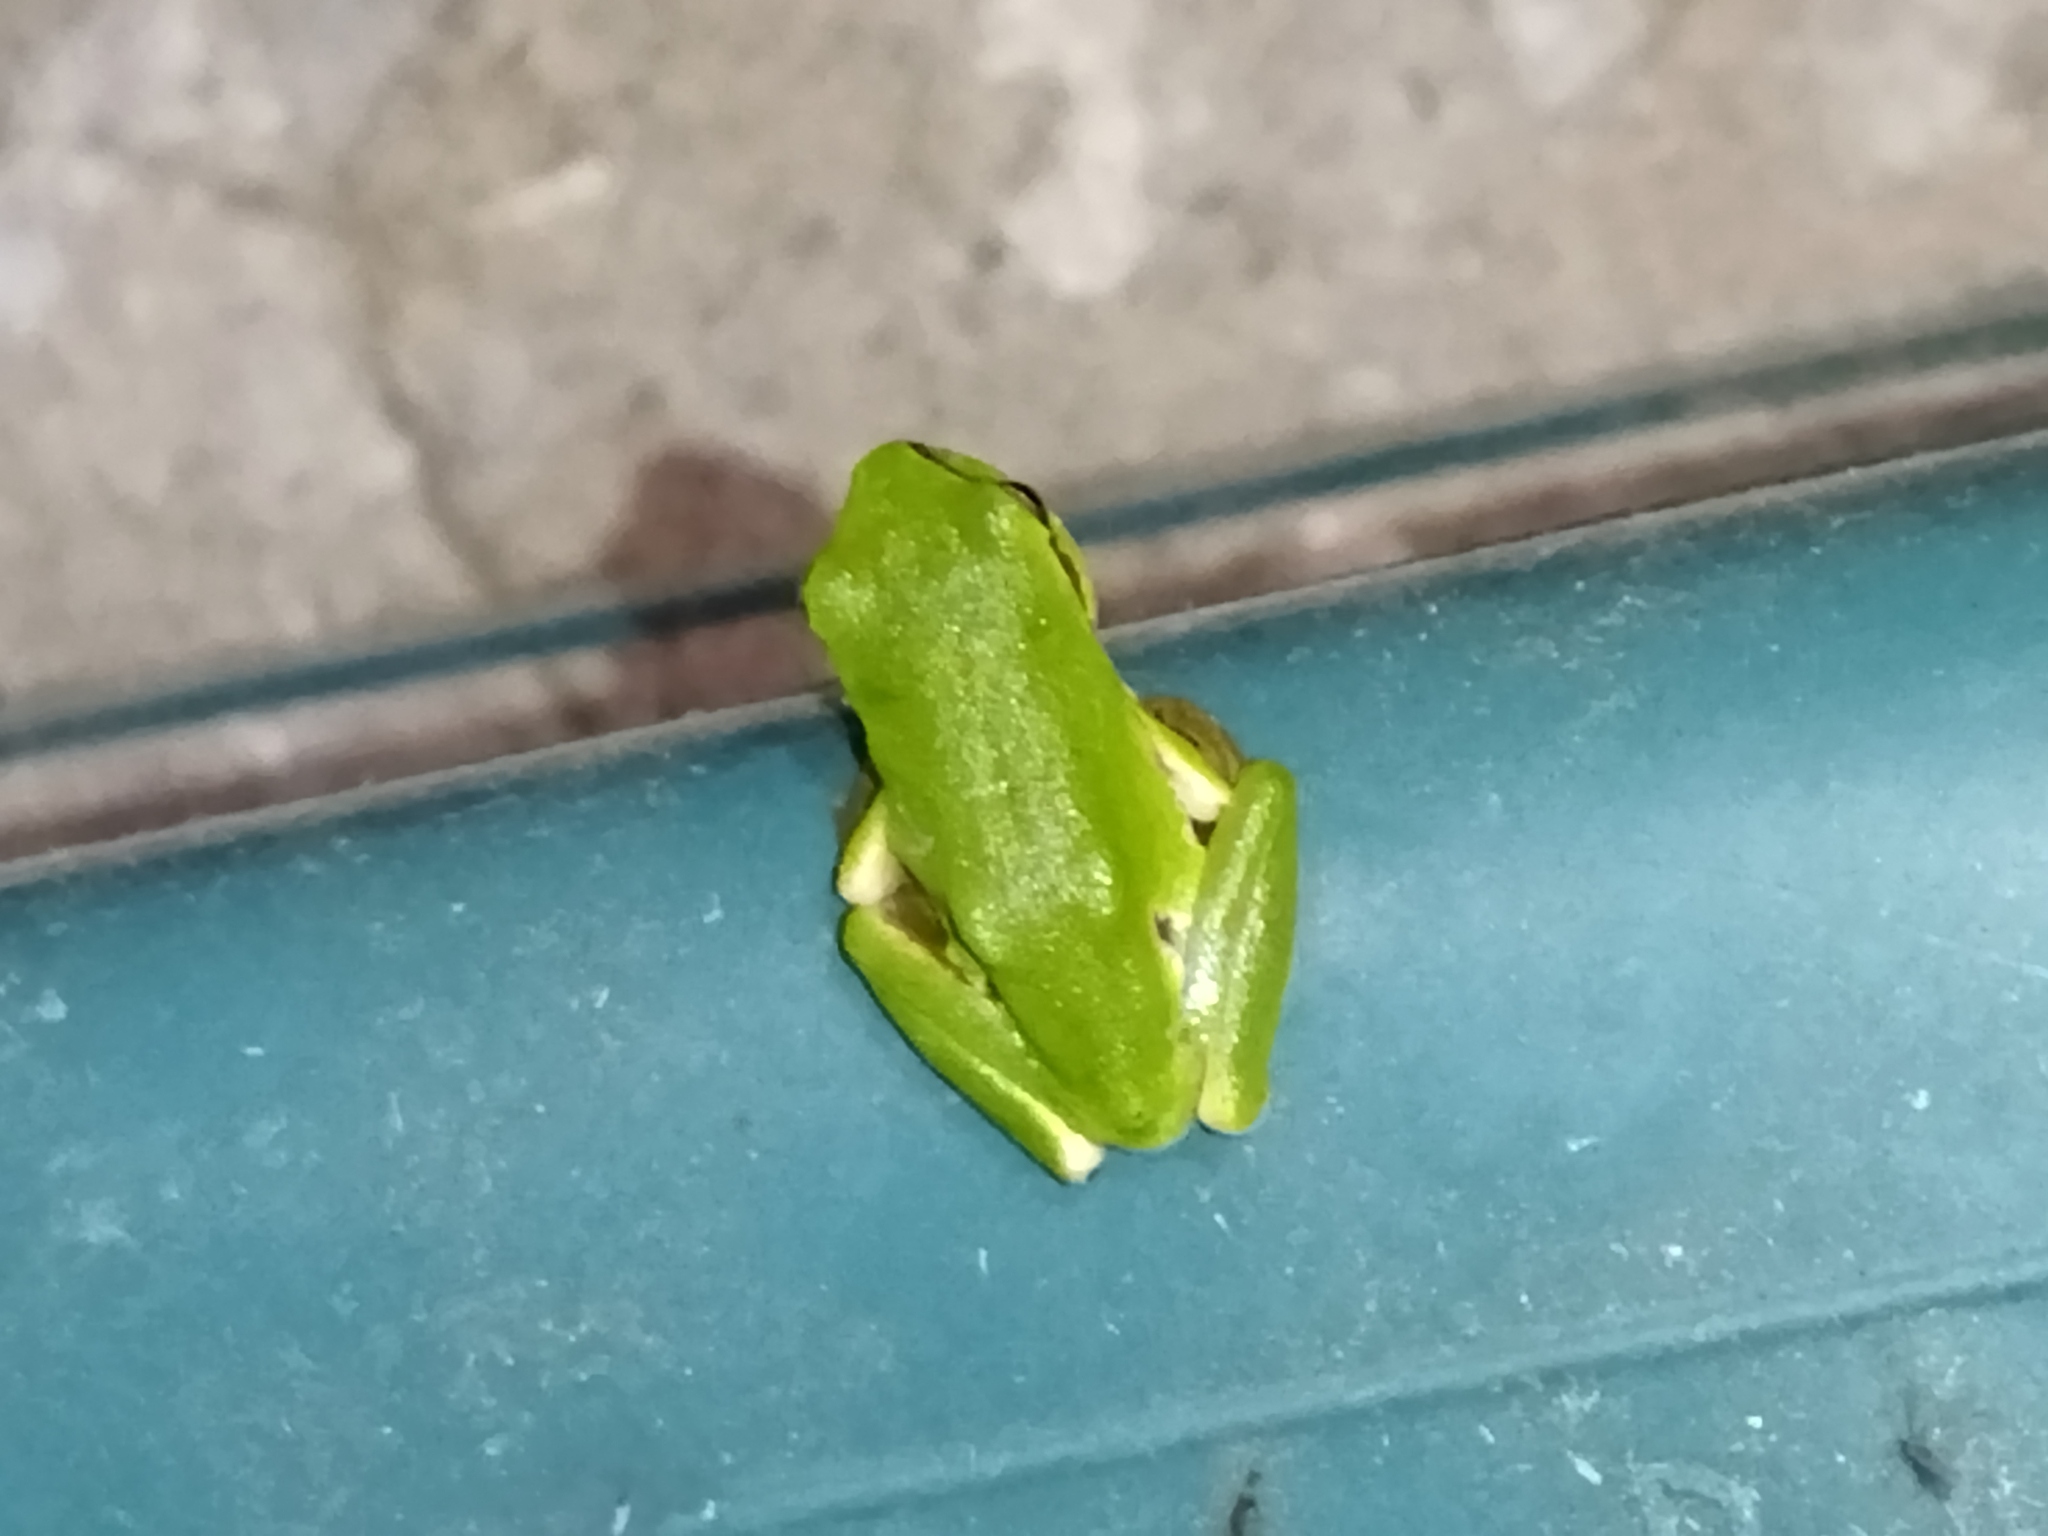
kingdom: Animalia
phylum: Chordata
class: Amphibia
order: Anura
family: Hylidae
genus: Hyla
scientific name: Hyla orientalis
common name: Caucasian treefrog
